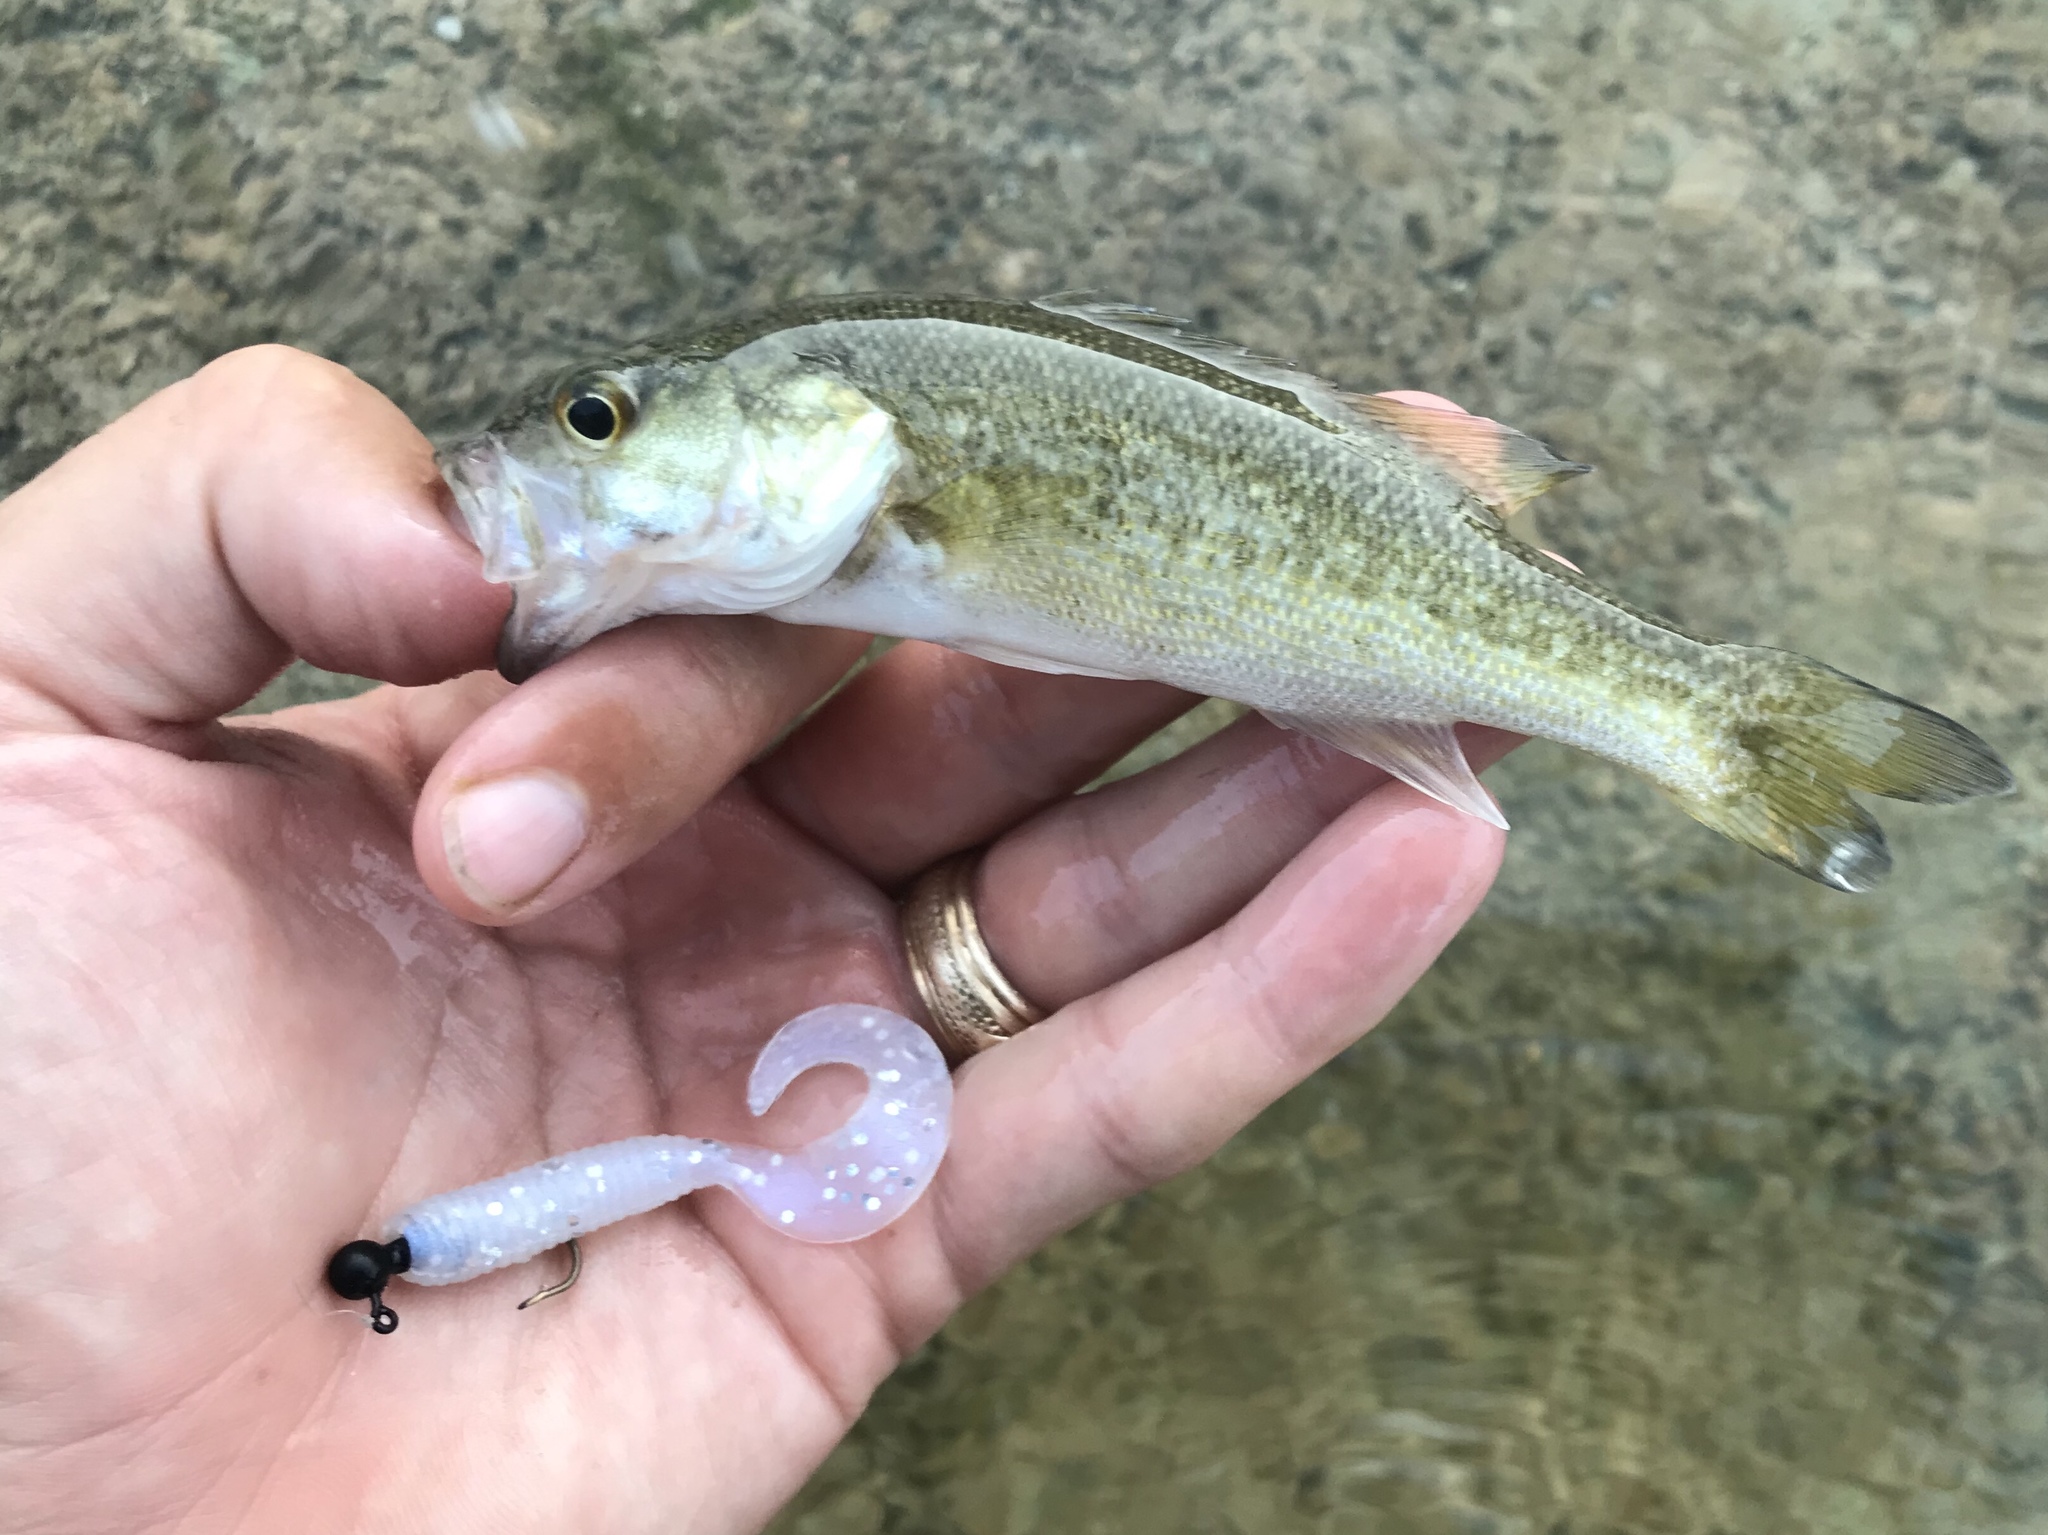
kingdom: Animalia
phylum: Chordata
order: Perciformes
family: Centrarchidae
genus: Micropterus
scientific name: Micropterus treculii
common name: Guadalupe bass
